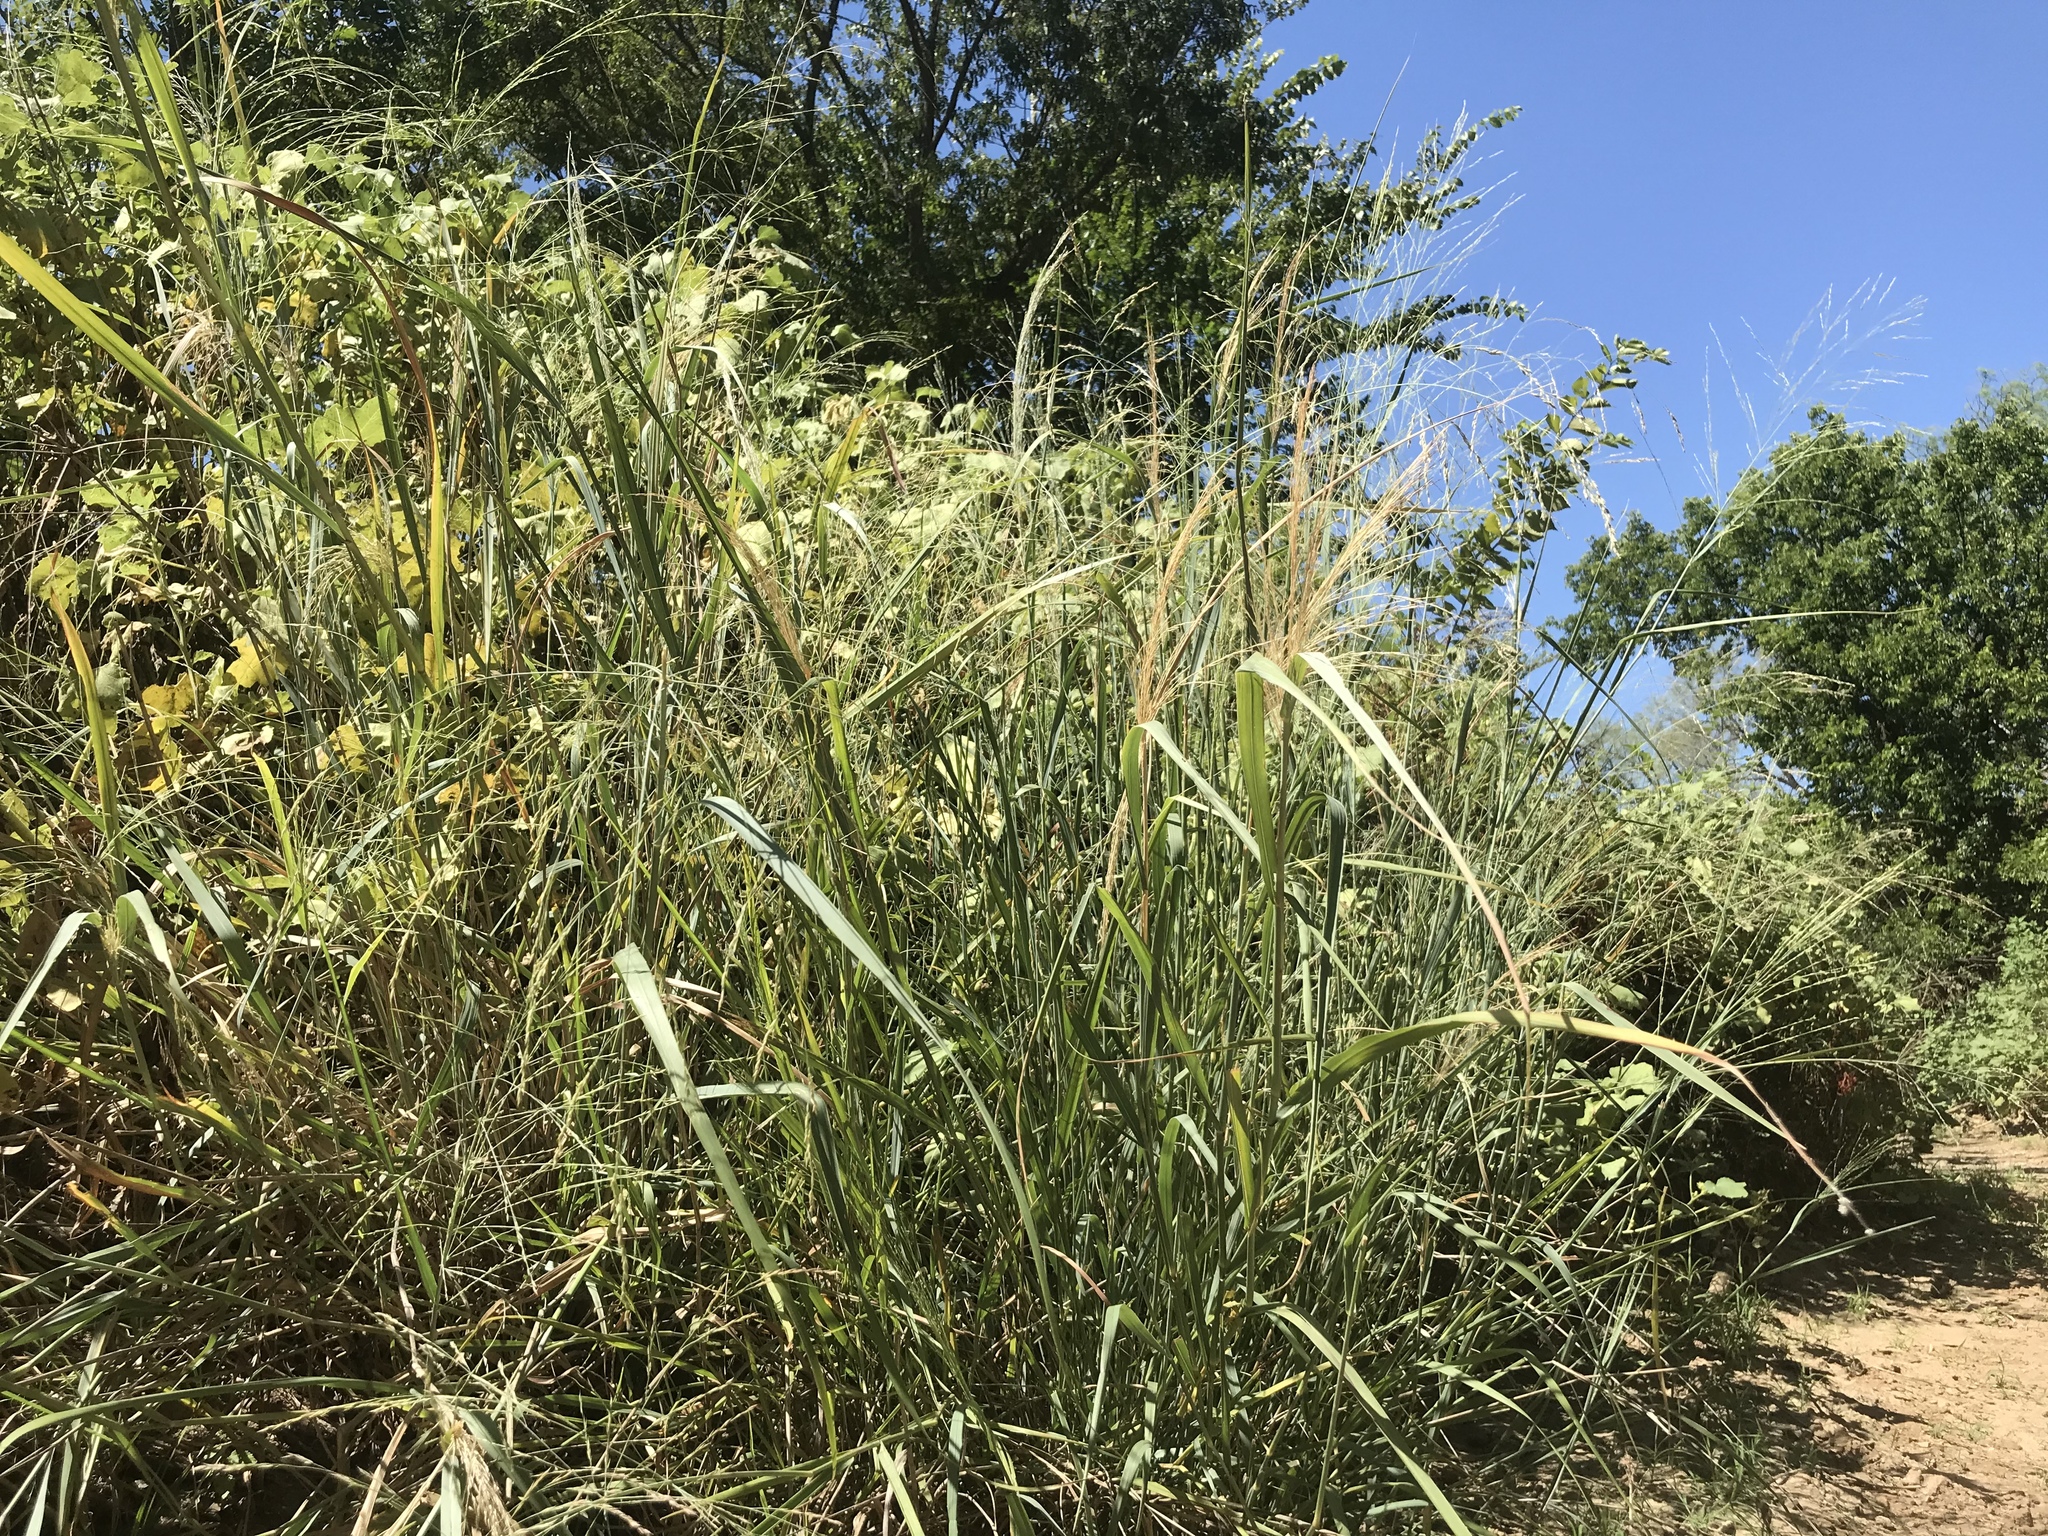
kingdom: Plantae
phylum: Tracheophyta
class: Liliopsida
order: Poales
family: Poaceae
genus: Panicum
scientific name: Panicum virgatum
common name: Switchgrass
